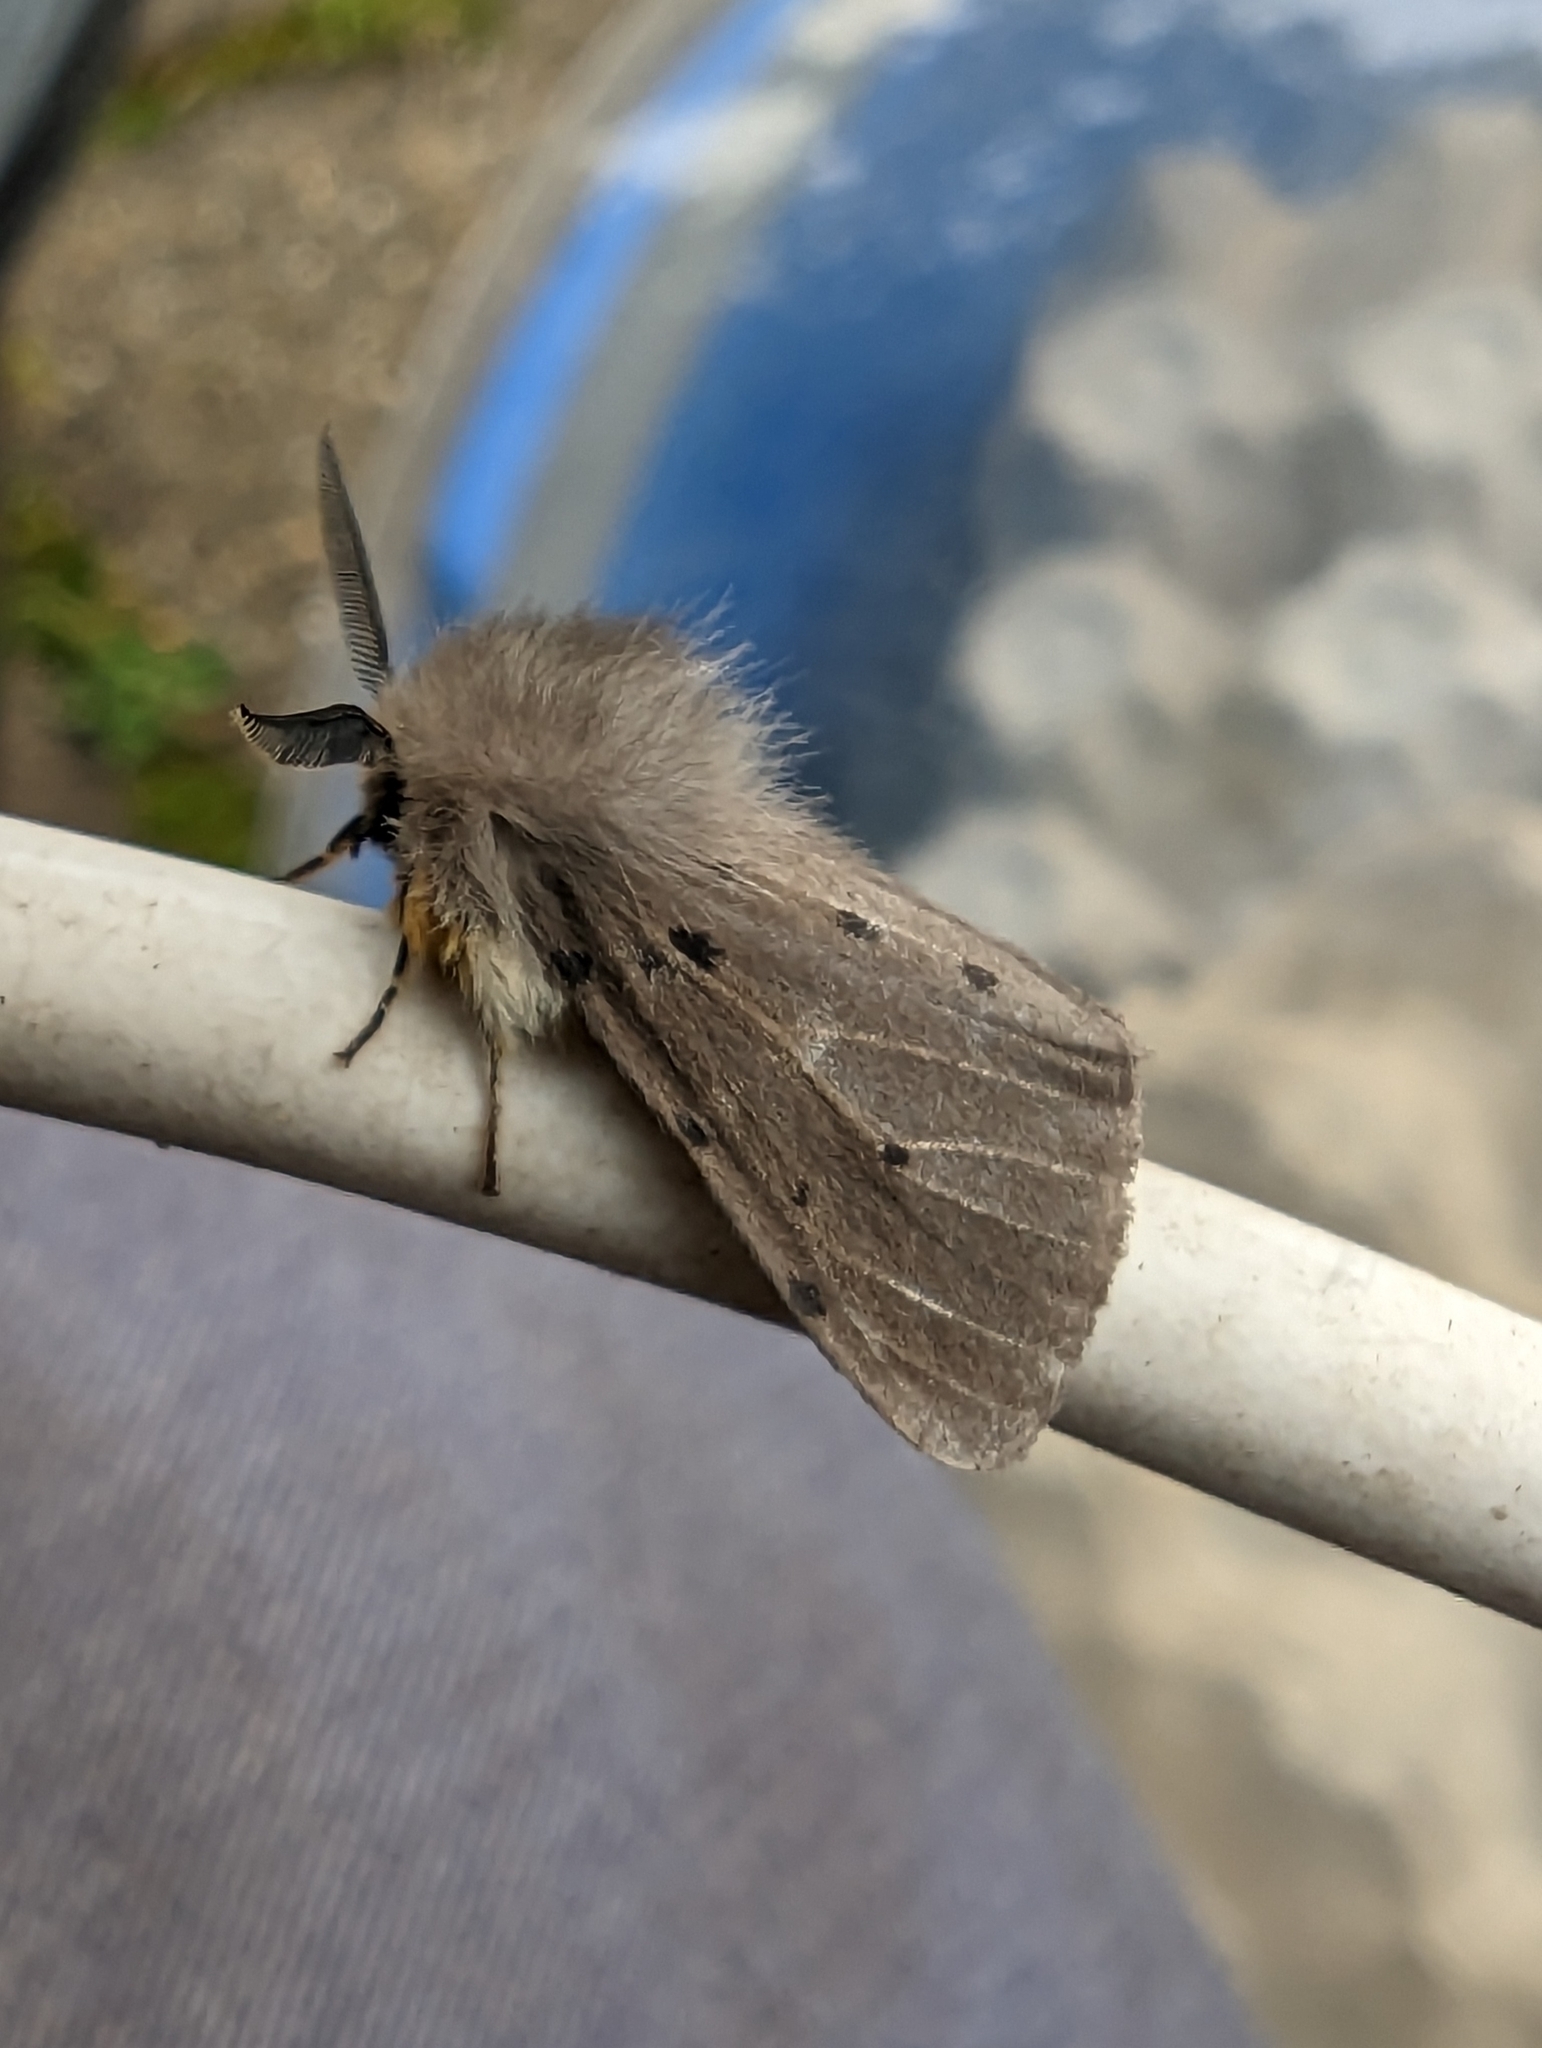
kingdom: Animalia
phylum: Arthropoda
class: Insecta
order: Lepidoptera
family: Erebidae
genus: Diaphora
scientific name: Diaphora mendica
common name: Muslin moth
